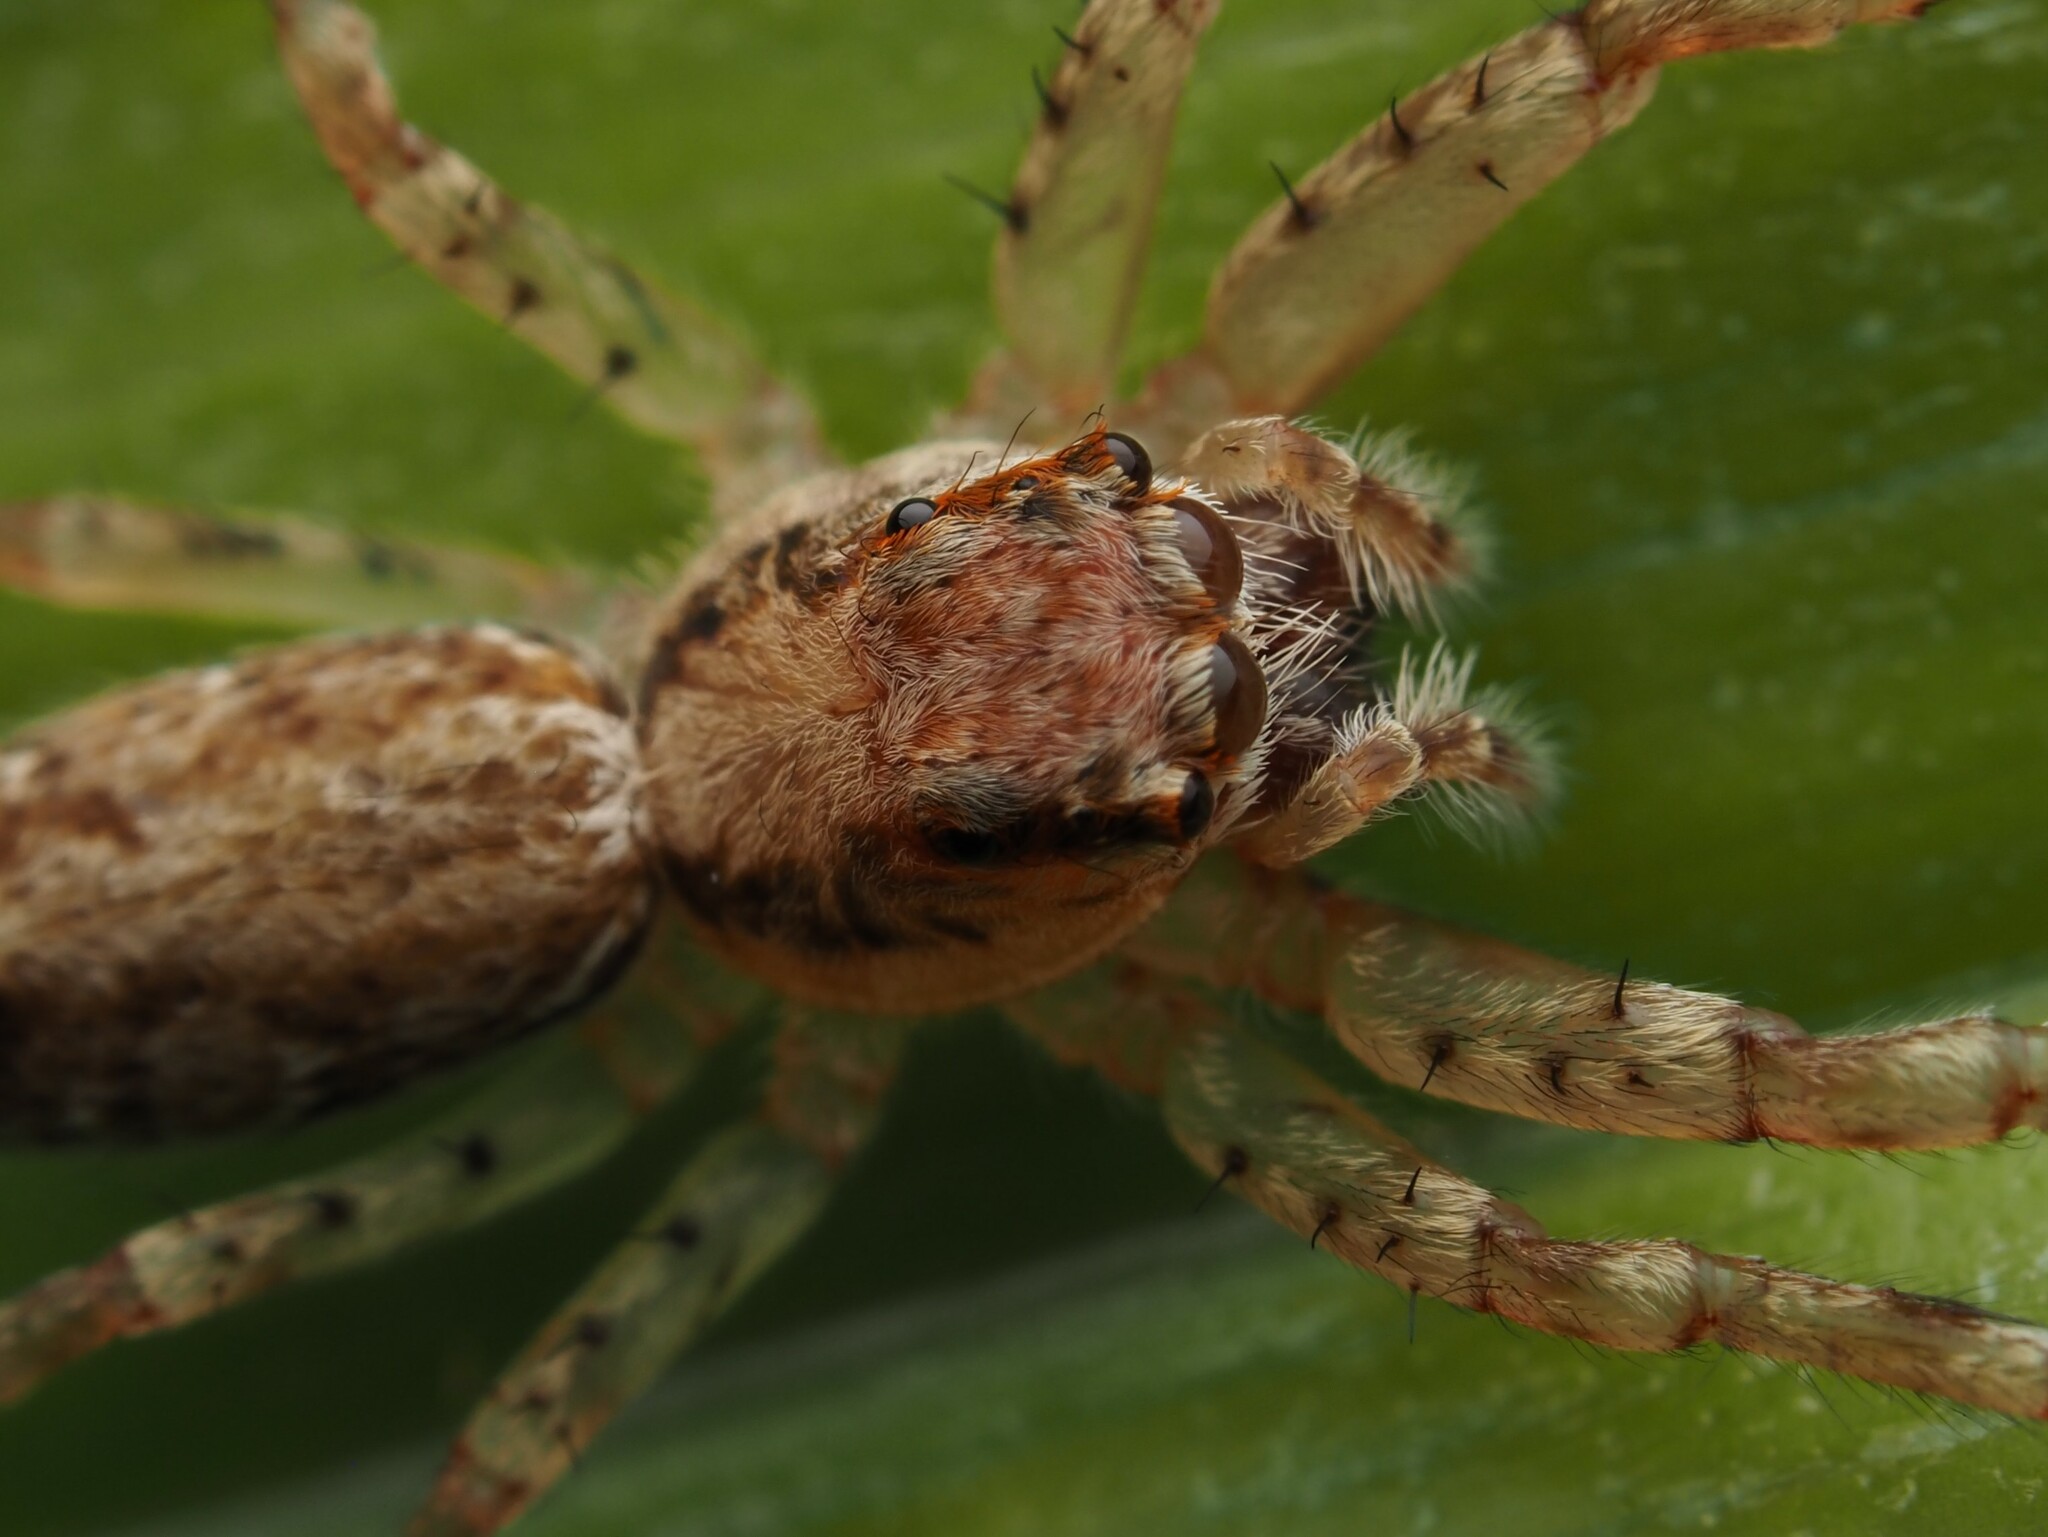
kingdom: Animalia
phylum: Arthropoda
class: Arachnida
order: Araneae
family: Salticidae
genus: Helpis
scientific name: Helpis minitabunda
